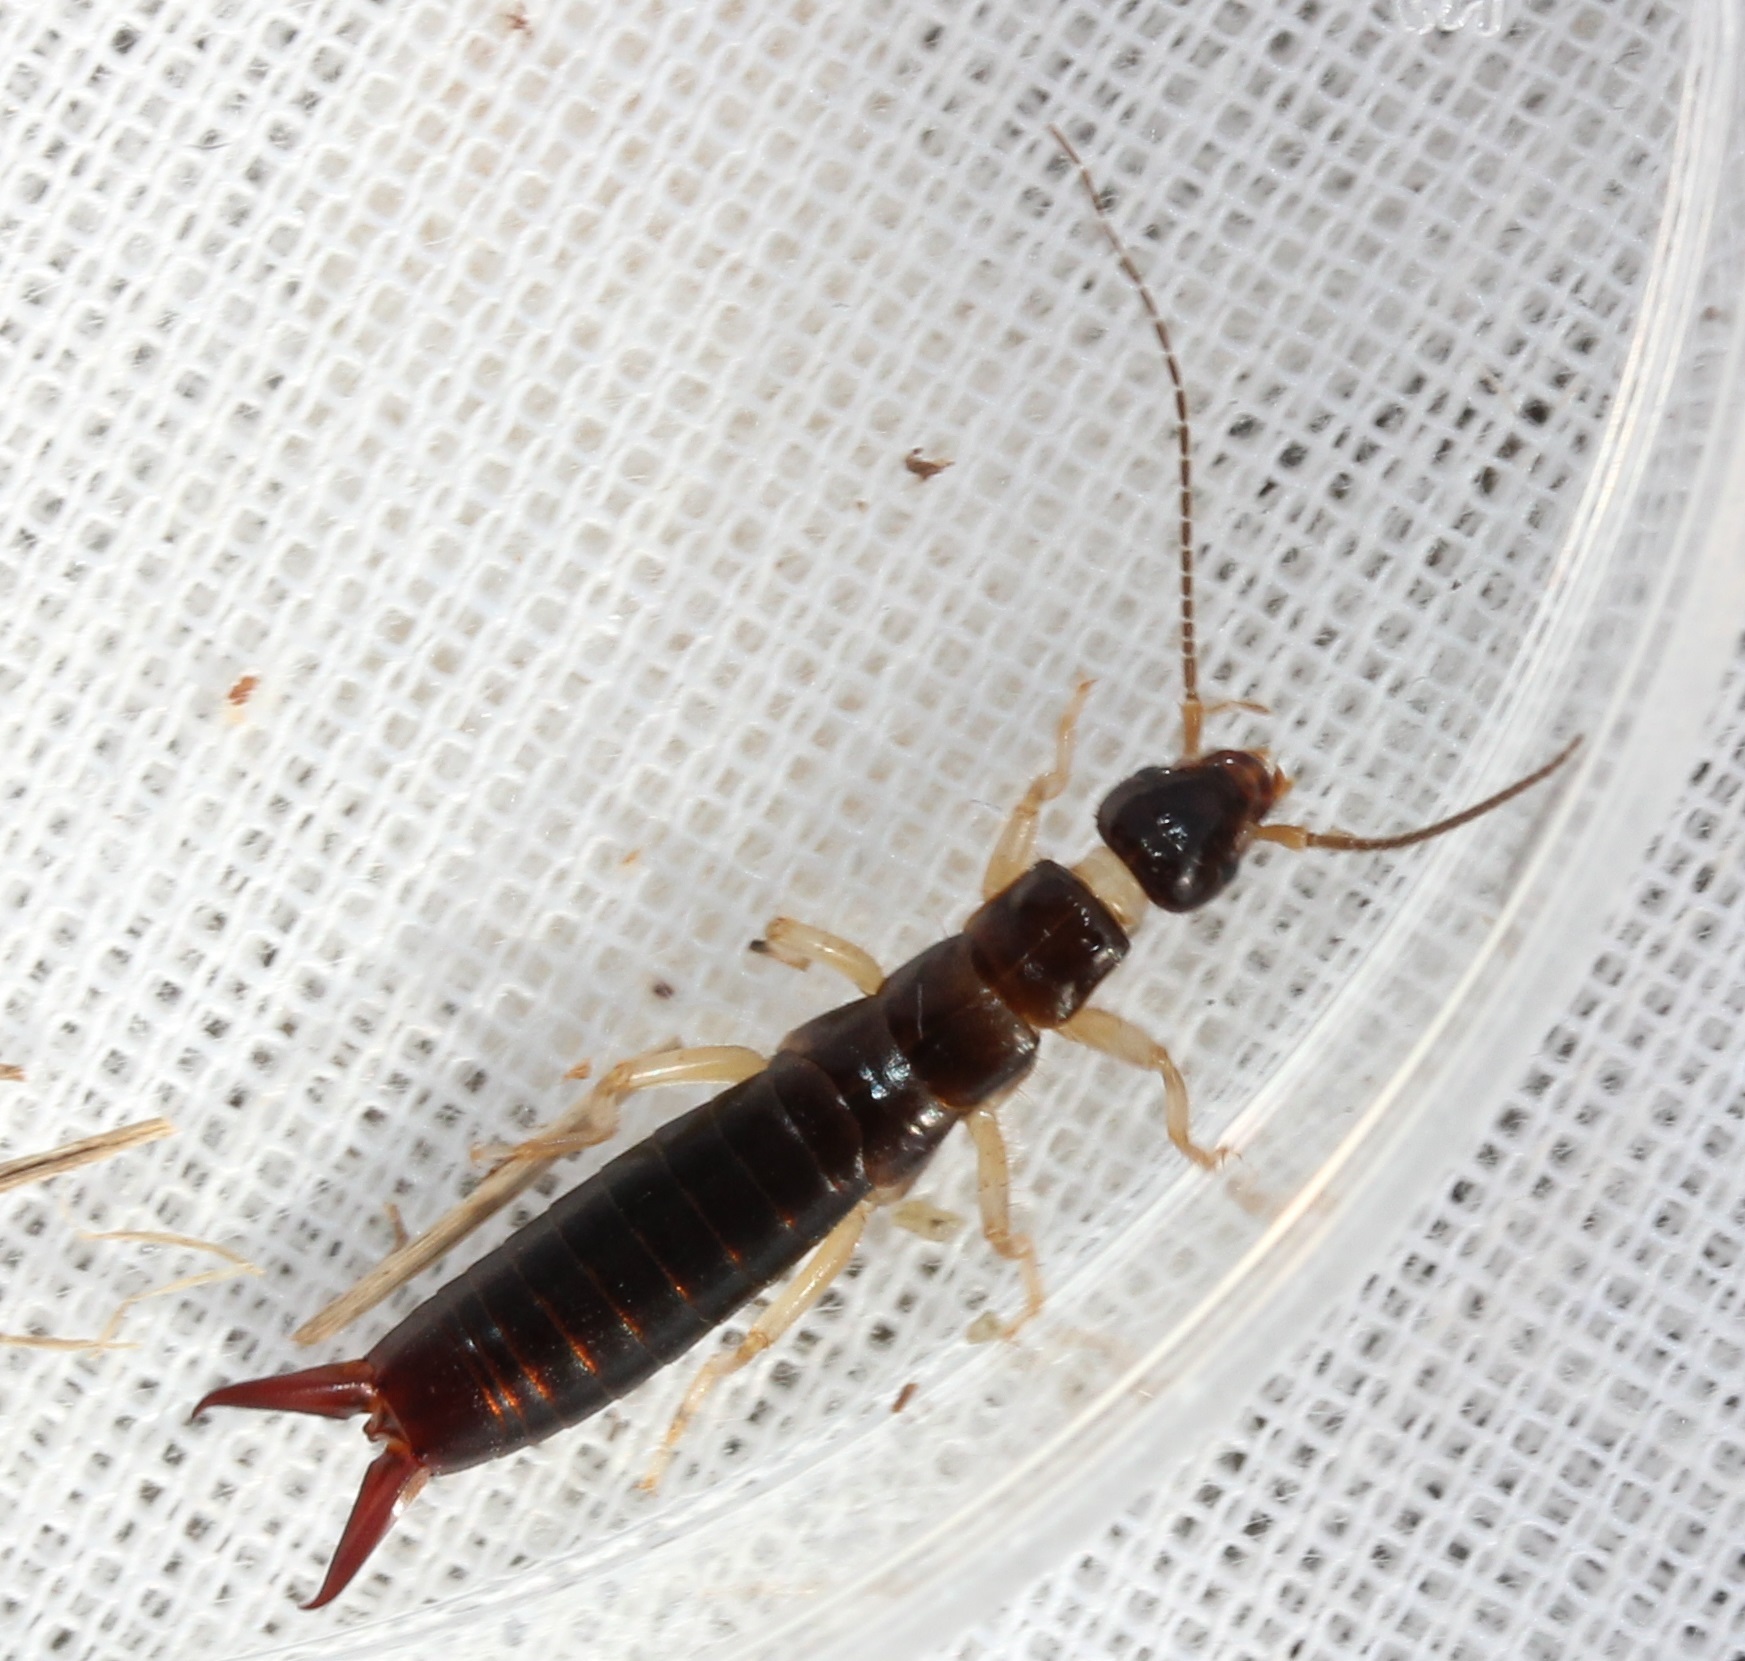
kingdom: Animalia
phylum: Arthropoda
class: Insecta
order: Dermaptera
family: Anisolabididae
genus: Anisolabis
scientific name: Anisolabis maritima
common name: Maritime earwig
